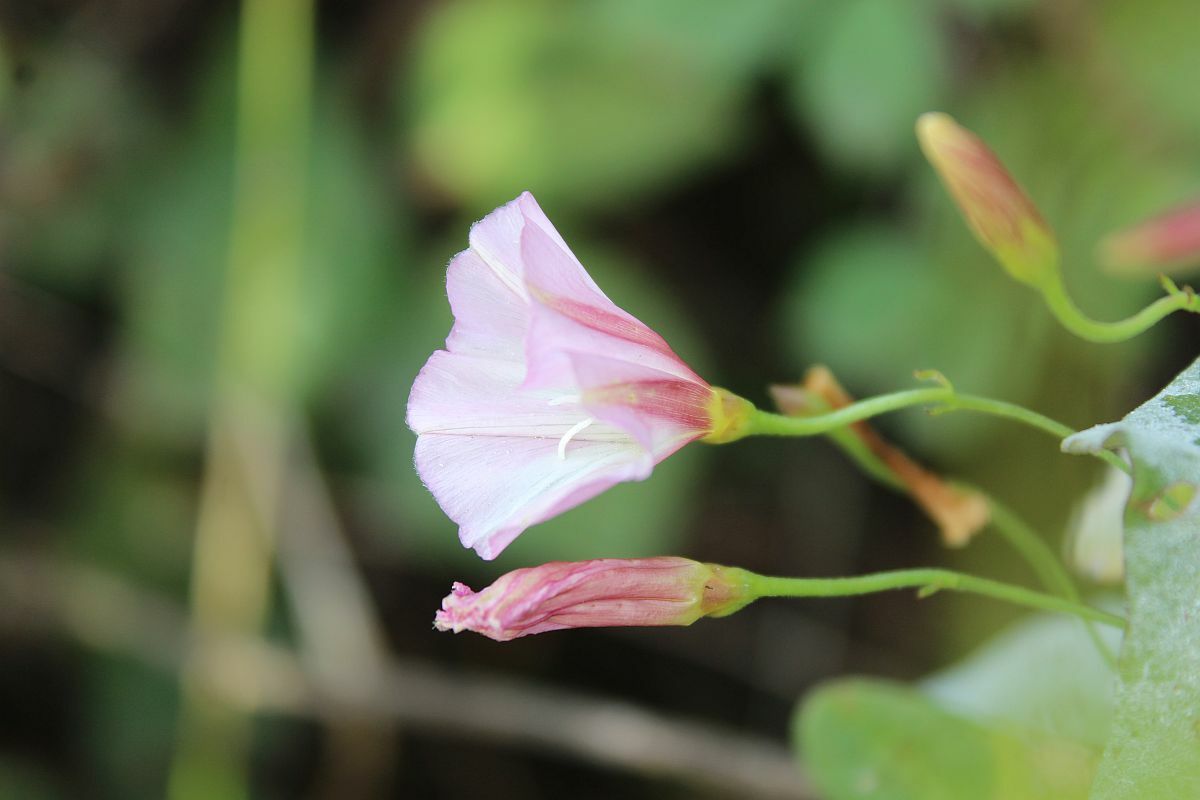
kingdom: Plantae
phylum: Tracheophyta
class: Magnoliopsida
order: Solanales
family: Convolvulaceae
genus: Convolvulus
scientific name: Convolvulus arvensis
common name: Field bindweed
